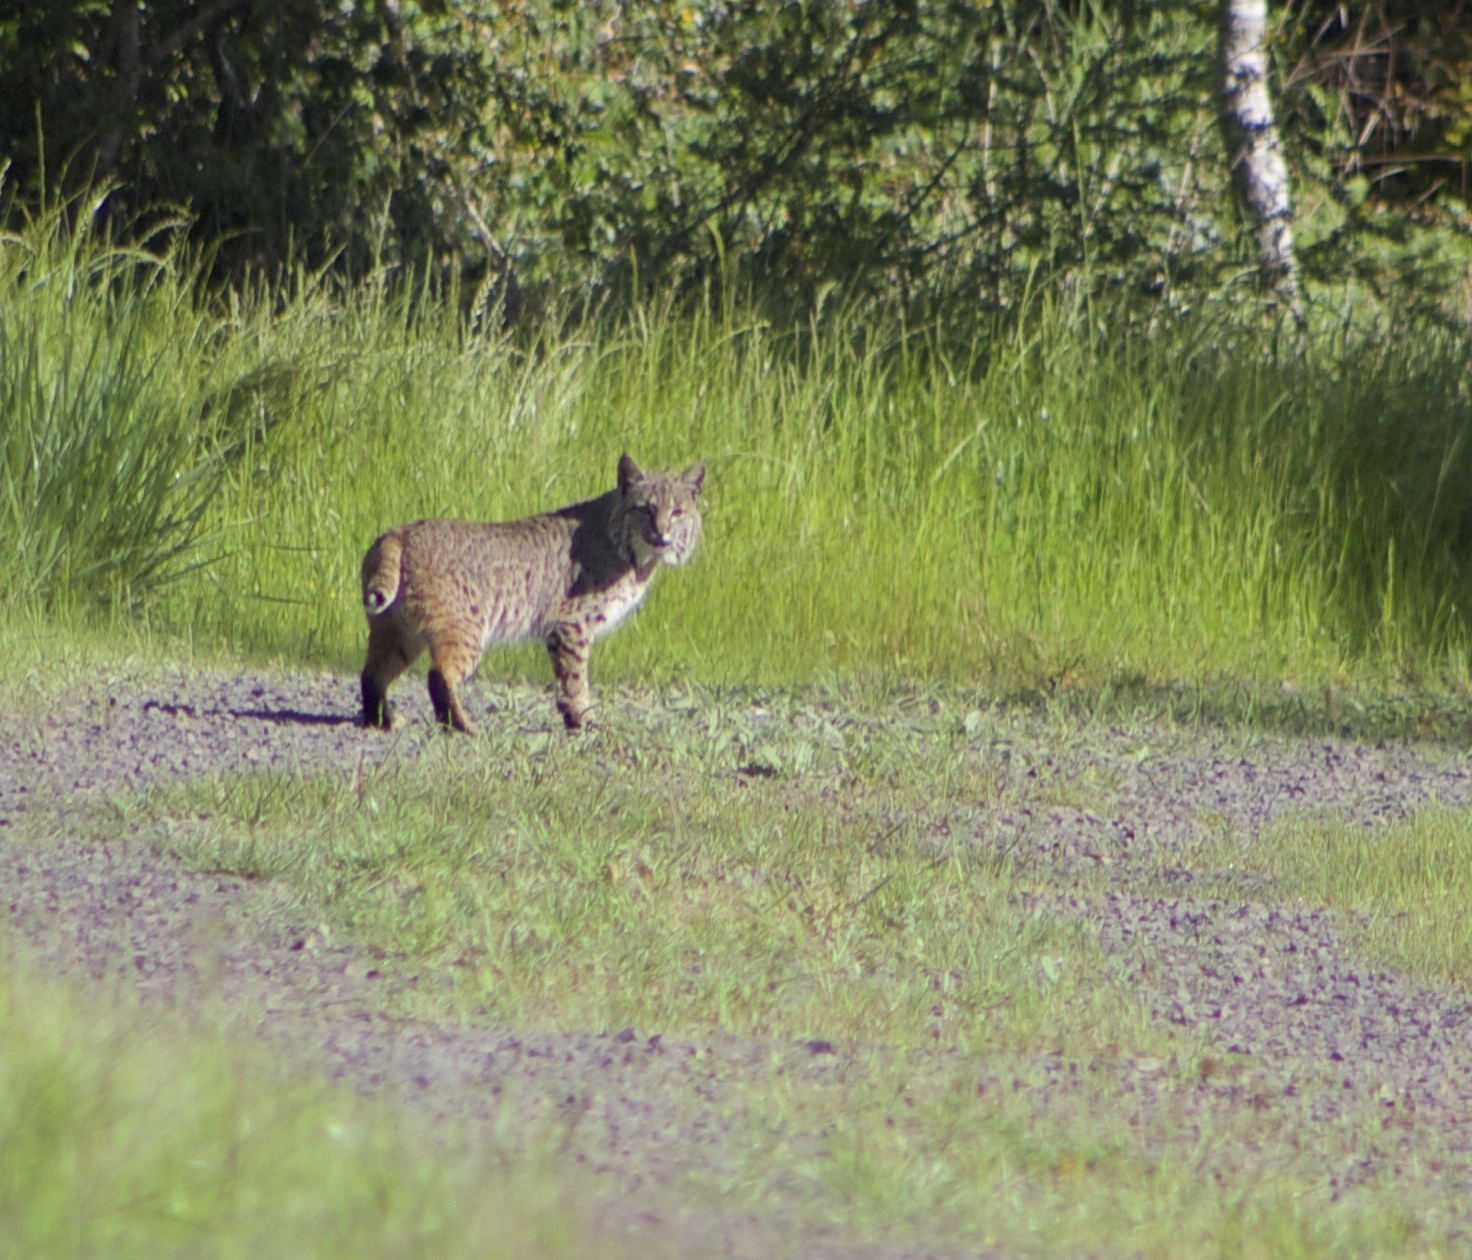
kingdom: Animalia
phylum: Chordata
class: Mammalia
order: Carnivora
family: Felidae
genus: Lynx
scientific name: Lynx rufus
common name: Bobcat
